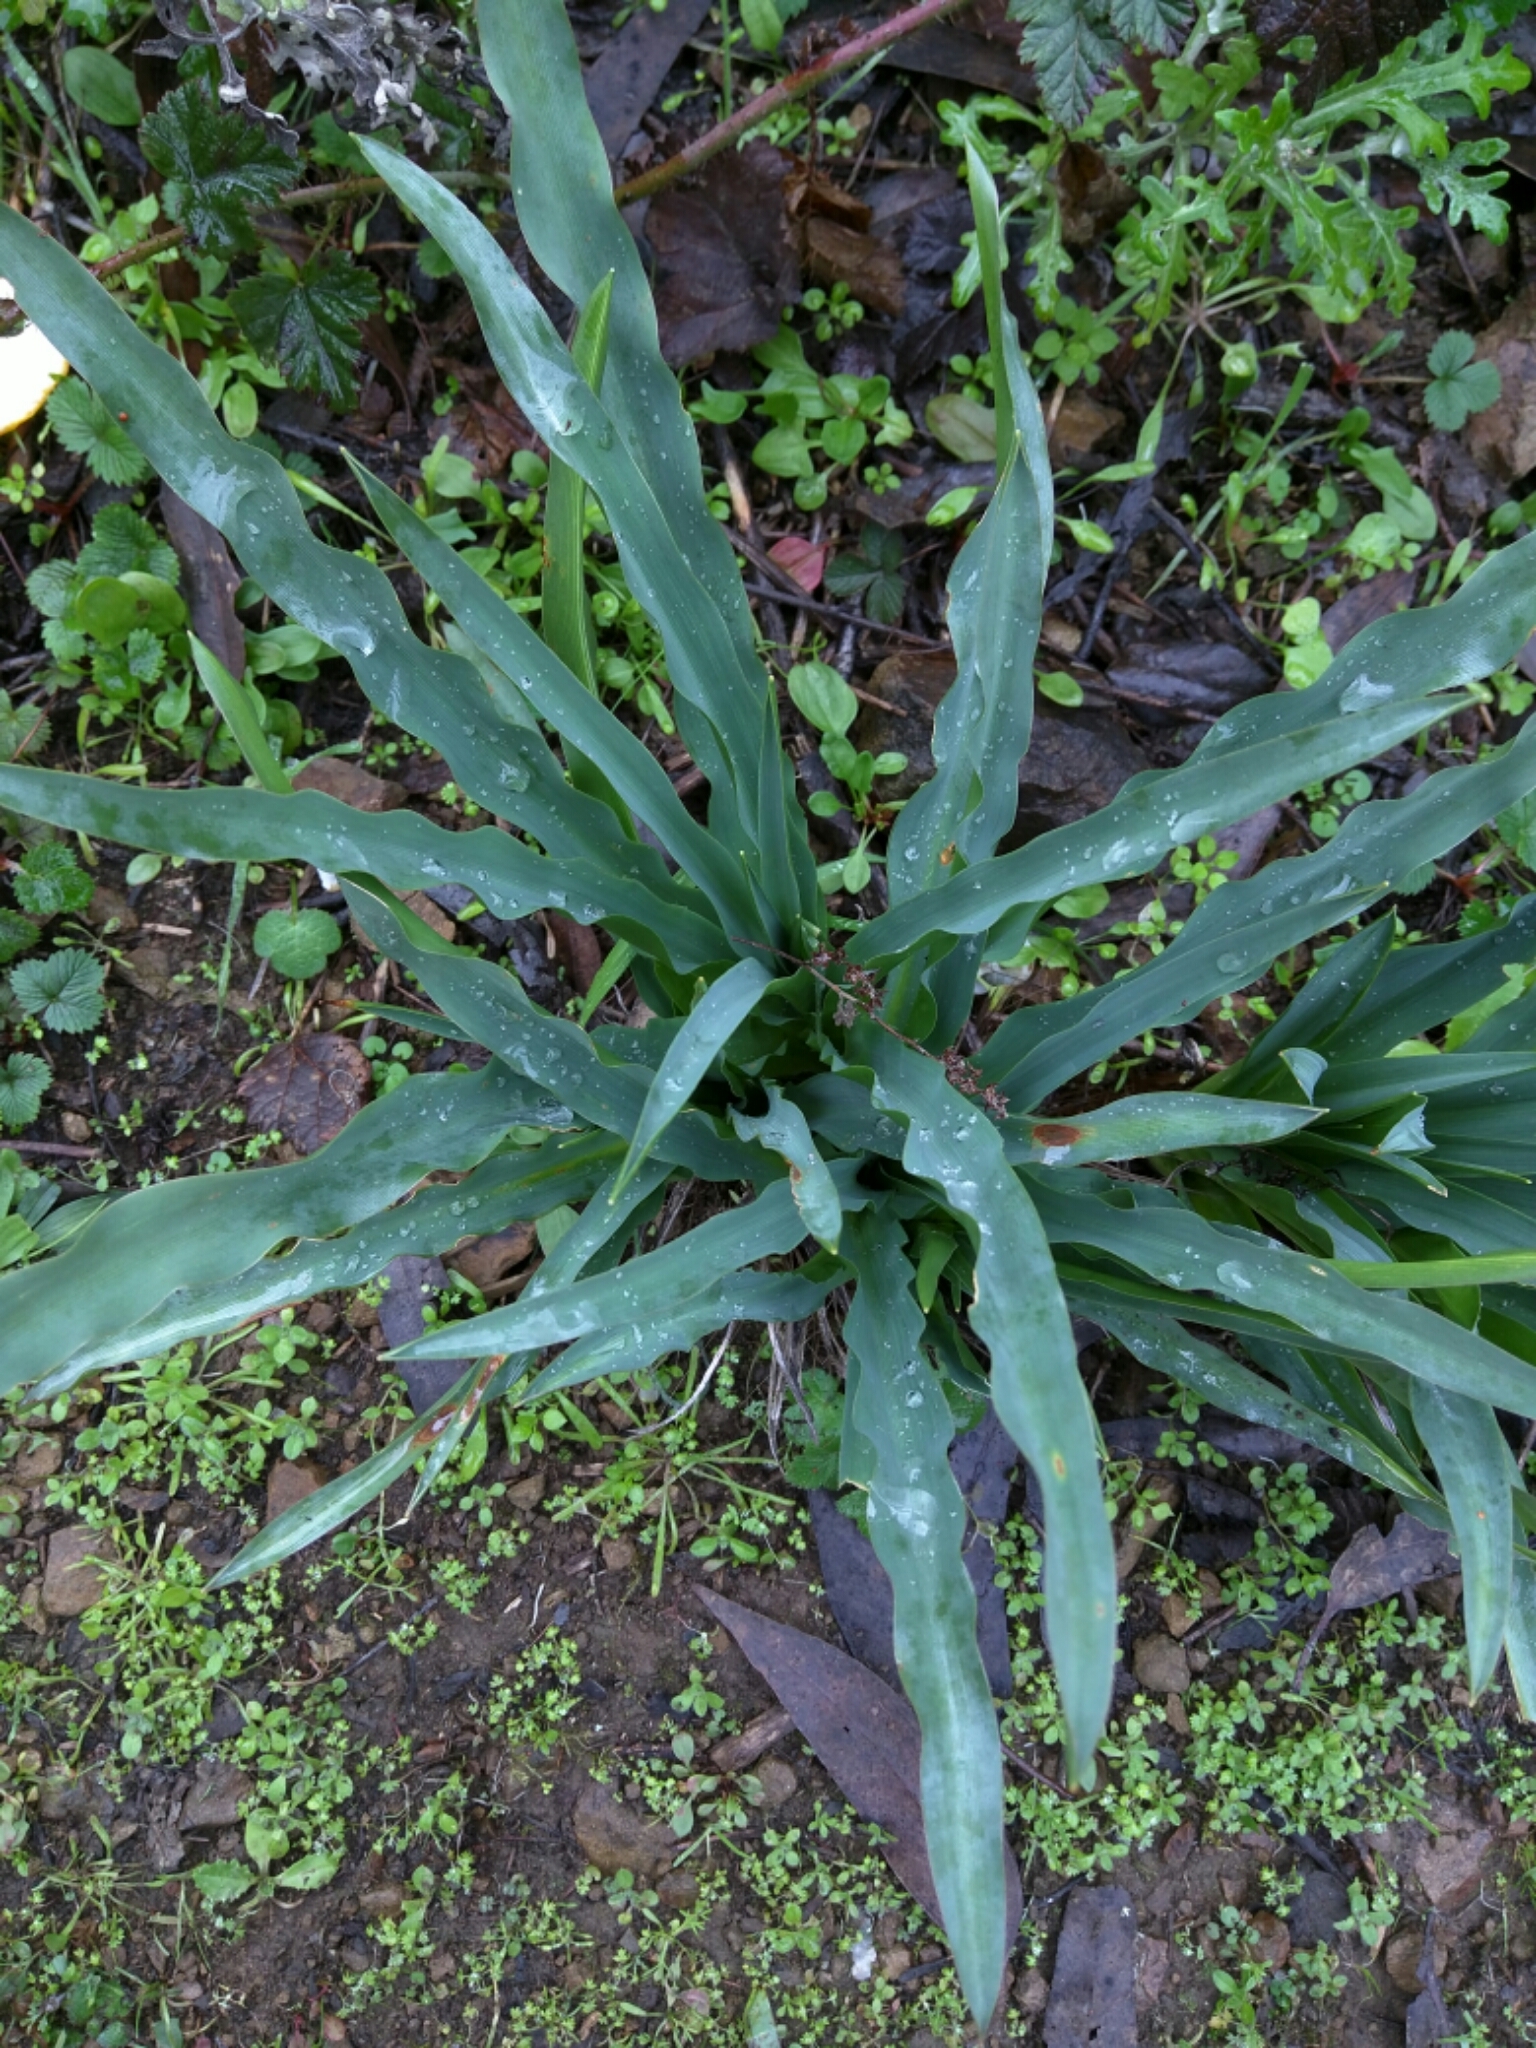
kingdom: Plantae
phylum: Tracheophyta
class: Liliopsida
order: Asparagales
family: Asparagaceae
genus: Chlorogalum
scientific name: Chlorogalum pomeridianum
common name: Amole
